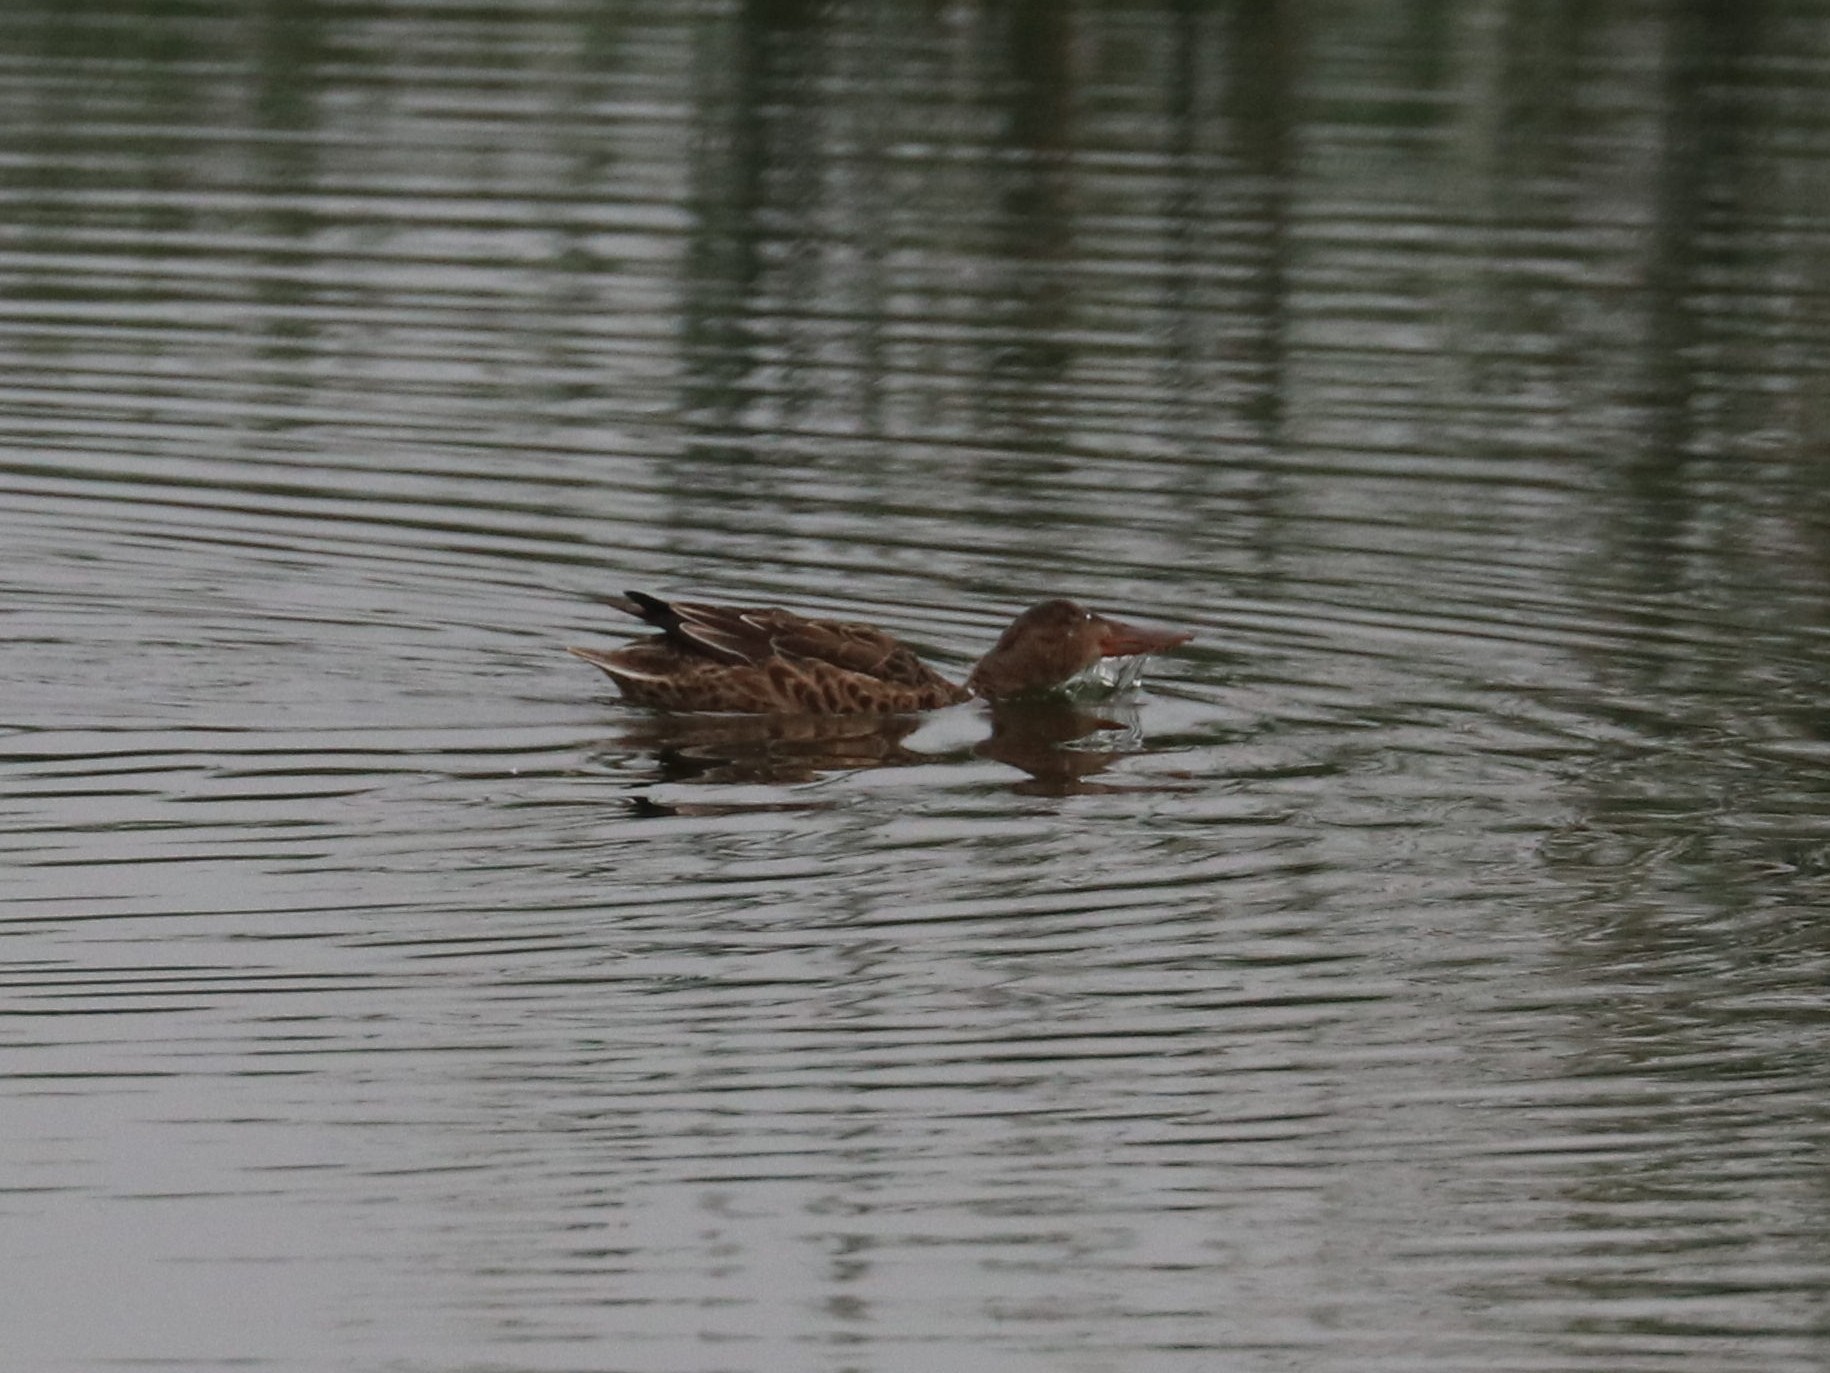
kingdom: Animalia
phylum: Chordata
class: Aves
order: Anseriformes
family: Anatidae
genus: Spatula
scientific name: Spatula clypeata
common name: Northern shoveler
